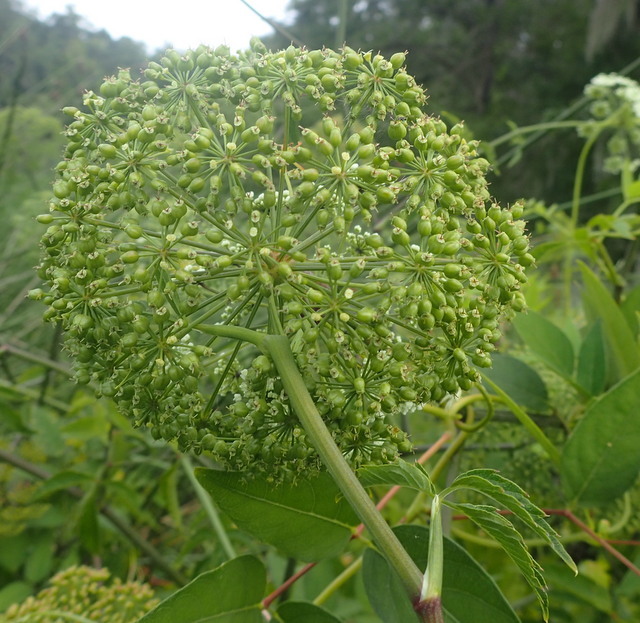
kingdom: Plantae
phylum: Tracheophyta
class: Magnoliopsida
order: Apiales
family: Apiaceae
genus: Cicuta
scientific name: Cicuta maculata
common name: Spotted cowbane
